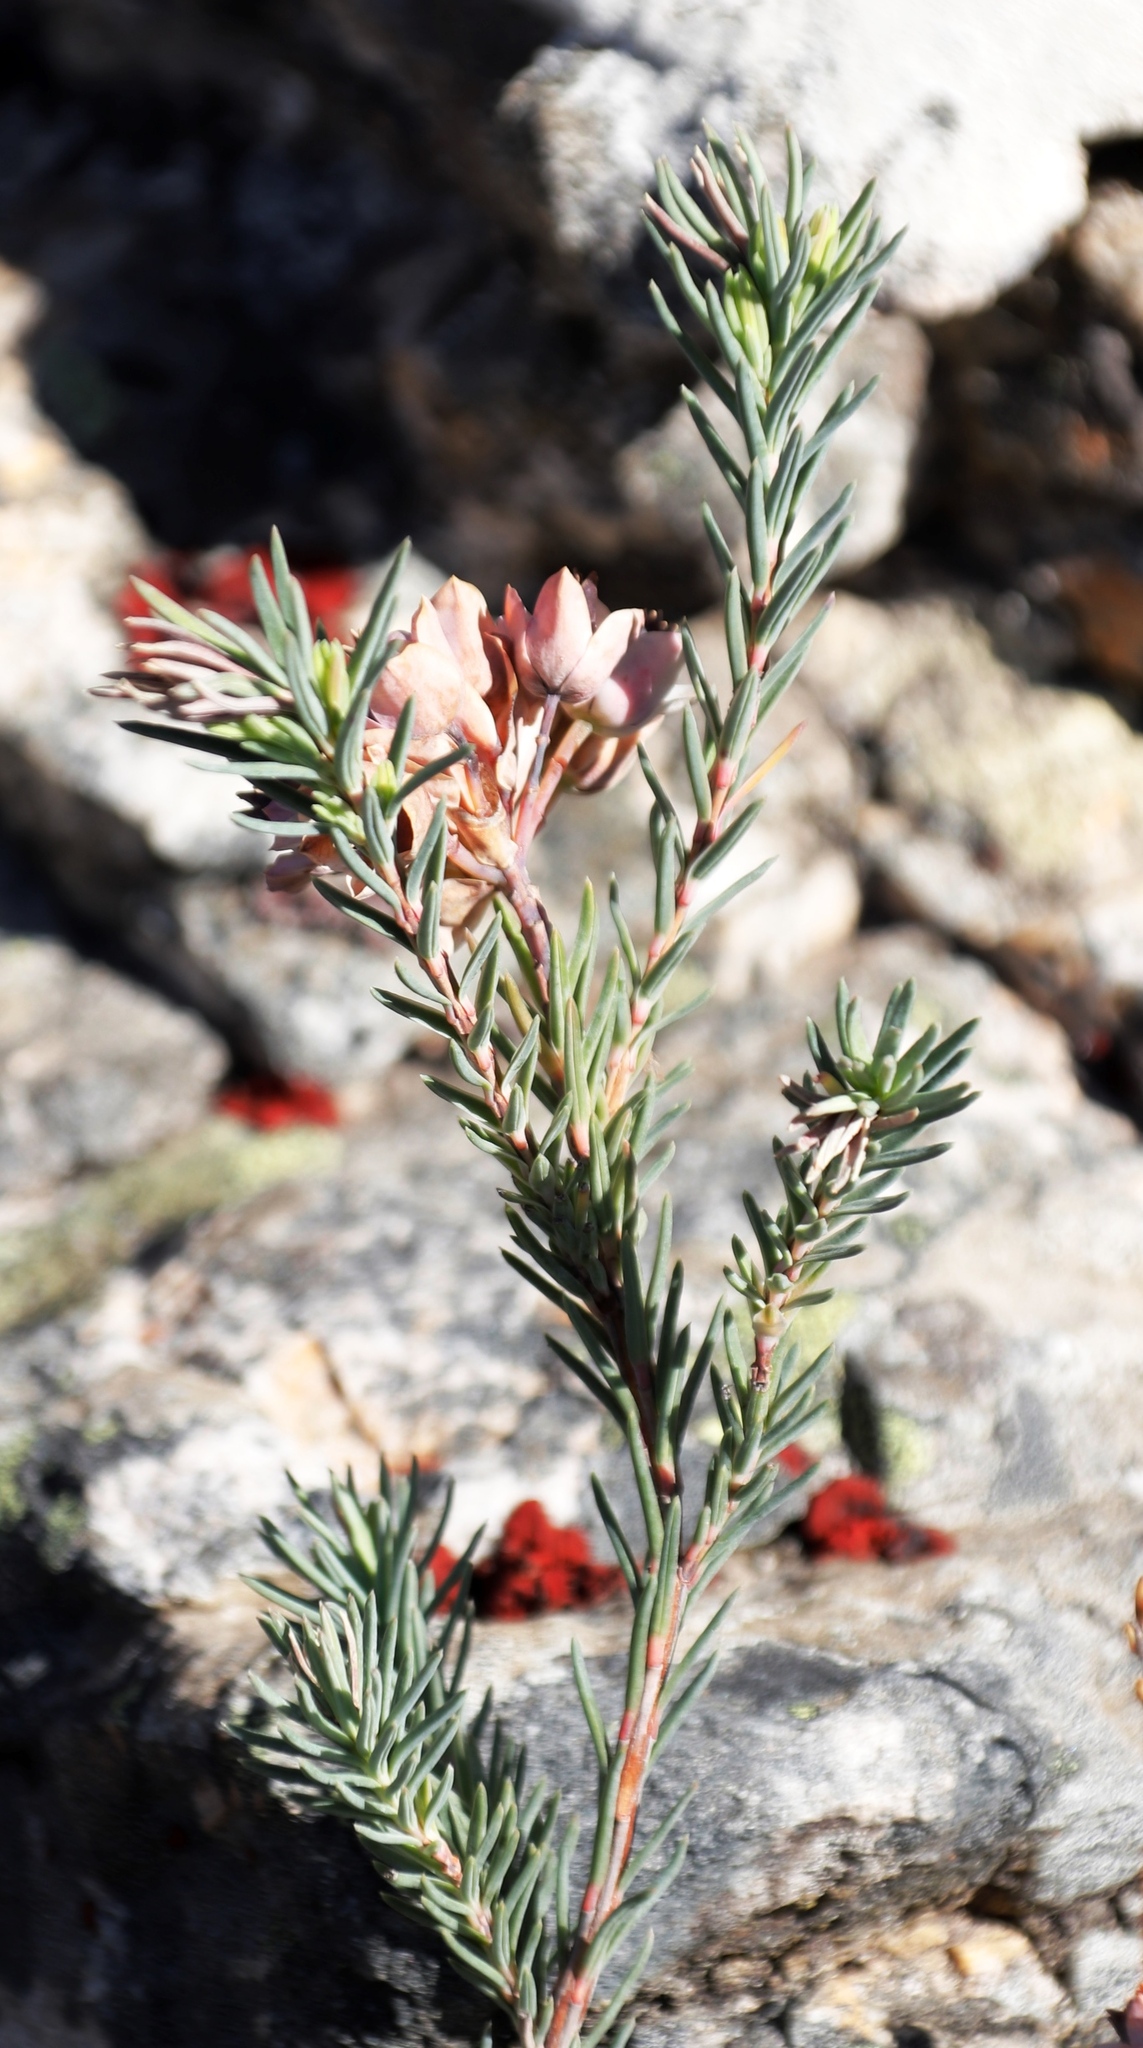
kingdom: Plantae
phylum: Tracheophyta
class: Magnoliopsida
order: Ericales
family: Ericaceae
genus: Erica
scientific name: Erica glauca
